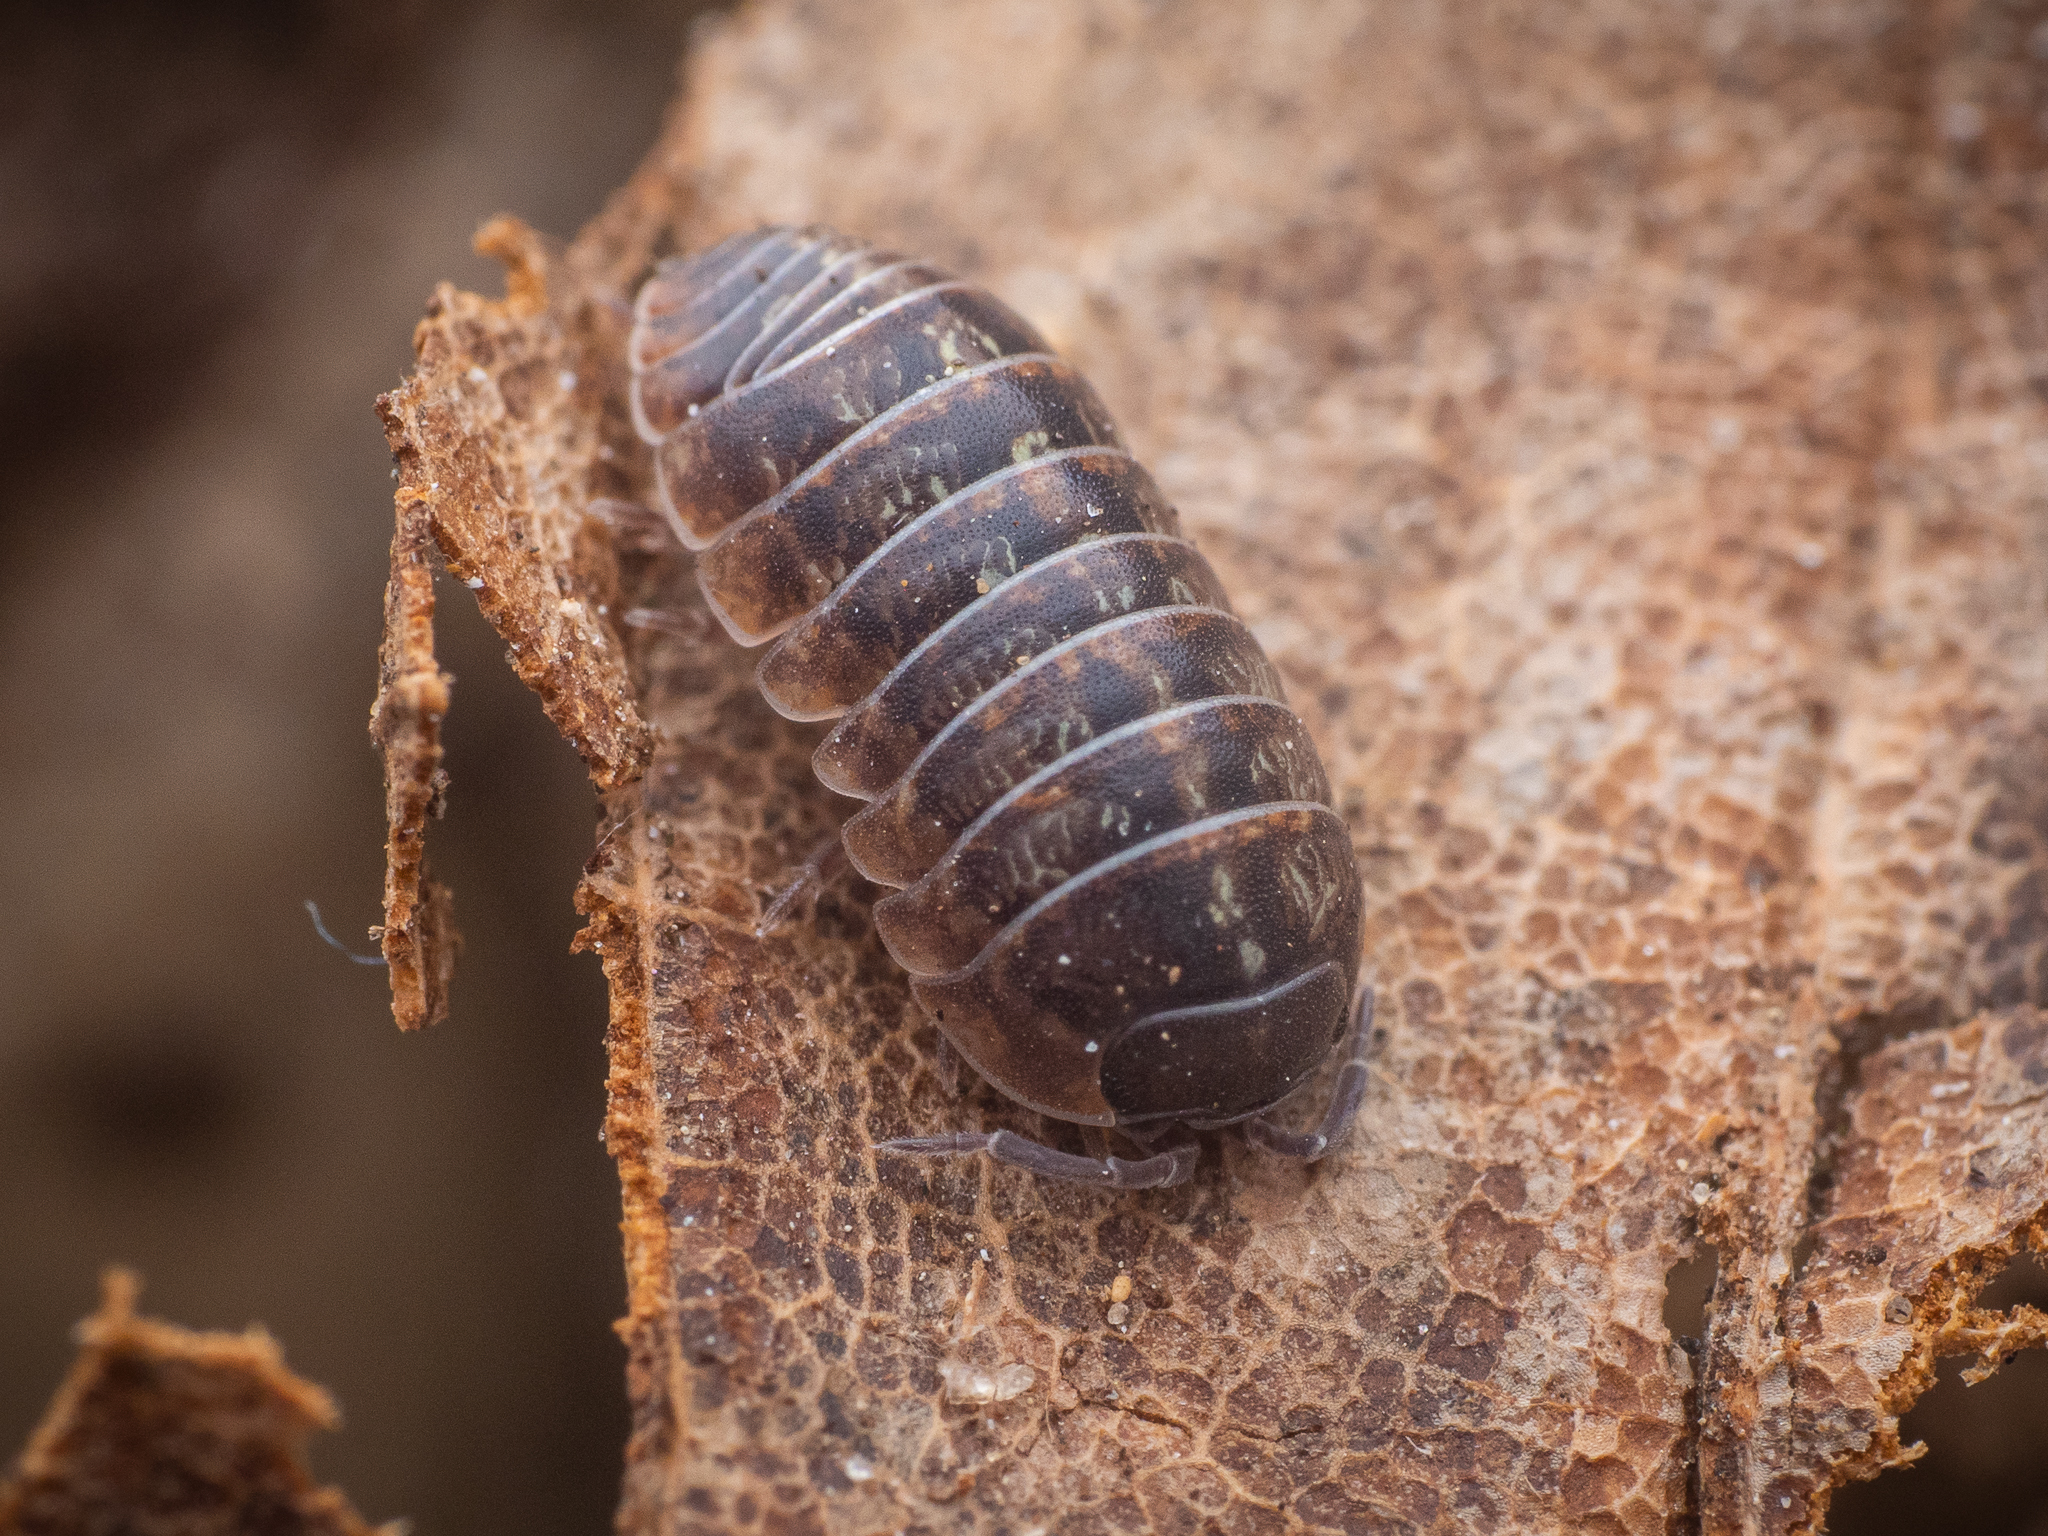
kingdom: Animalia
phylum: Arthropoda
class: Malacostraca
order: Isopoda
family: Armadillidiidae
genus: Armadillidium
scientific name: Armadillidium vulgare
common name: Common pill woodlouse
